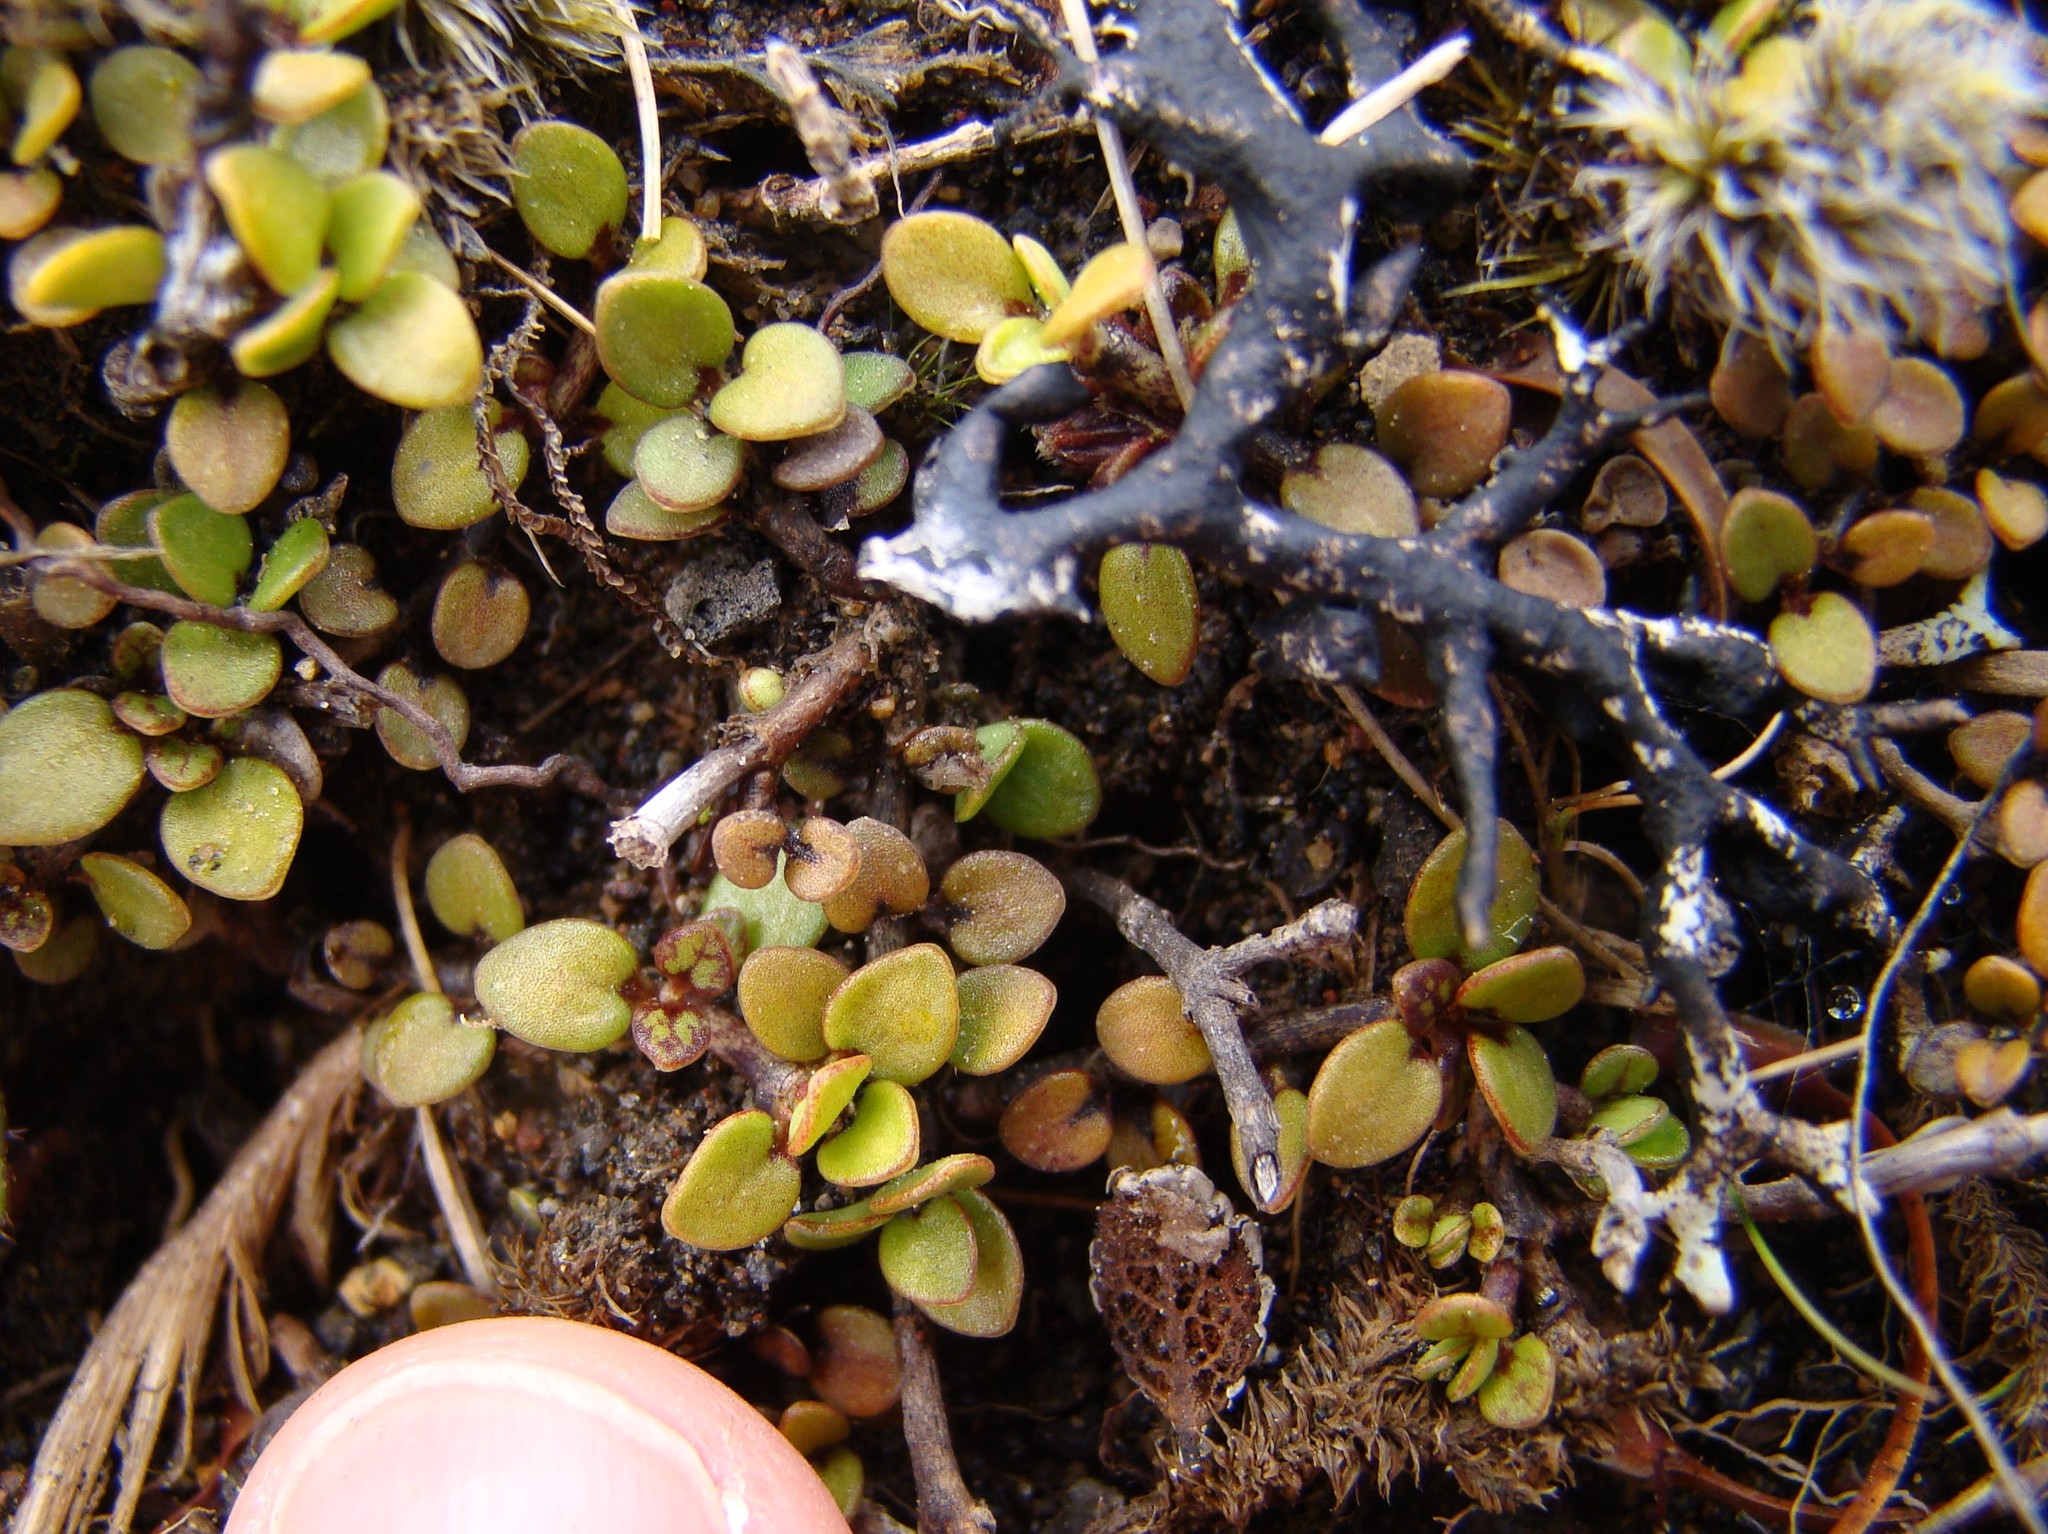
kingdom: Plantae
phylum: Tracheophyta
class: Magnoliopsida
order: Gentianales
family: Rubiaceae
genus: Coprosma
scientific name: Coprosma perpusilla
